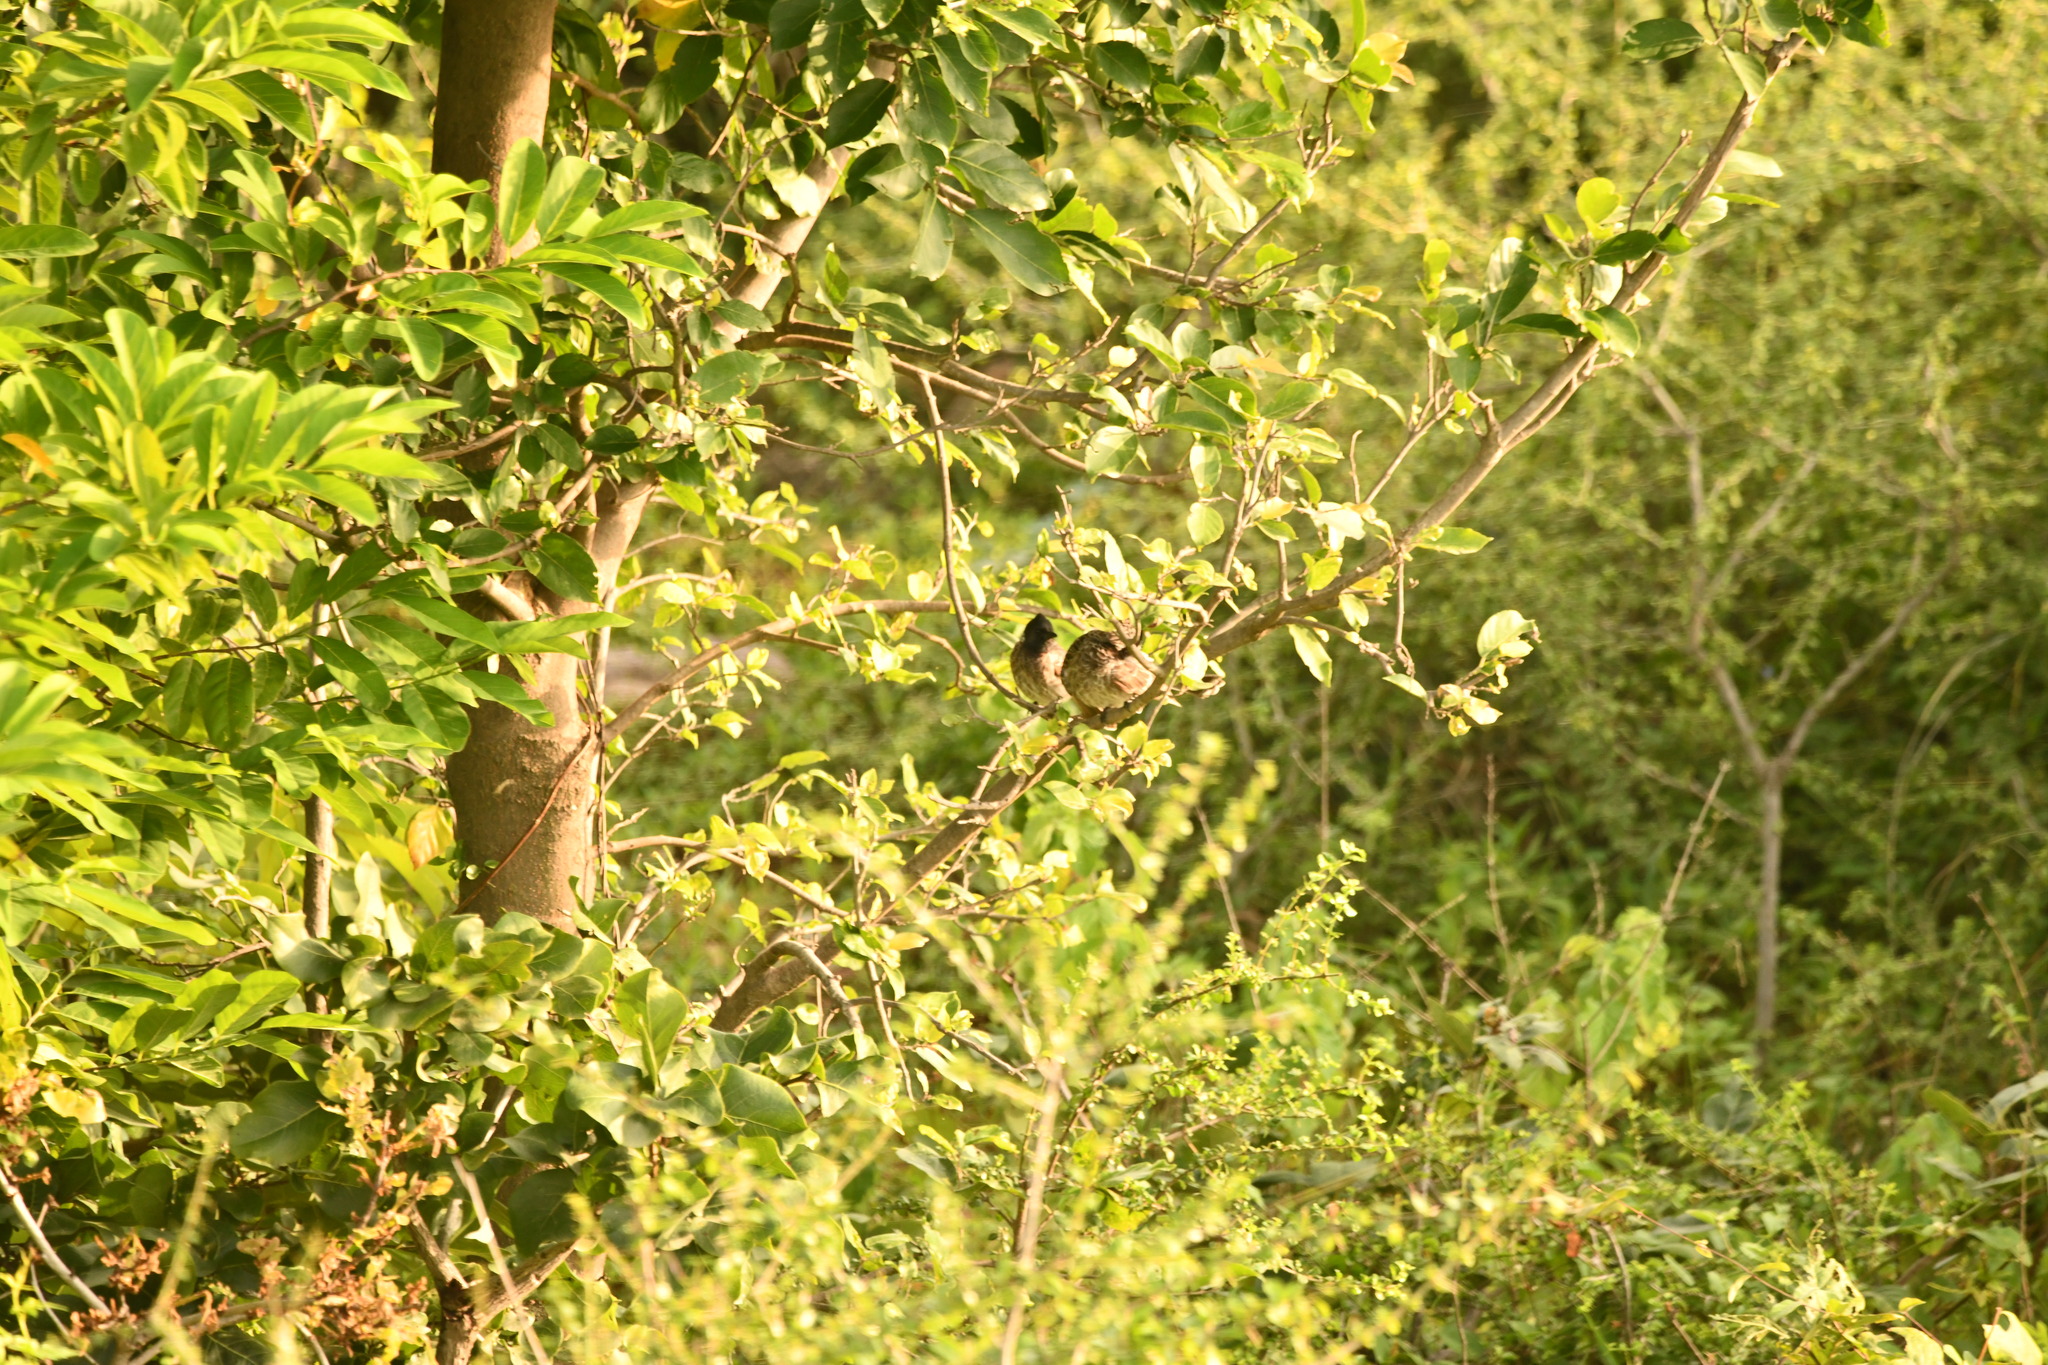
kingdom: Animalia
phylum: Chordata
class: Aves
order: Passeriformes
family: Pycnonotidae
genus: Pycnonotus
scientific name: Pycnonotus cafer
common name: Red-vented bulbul
